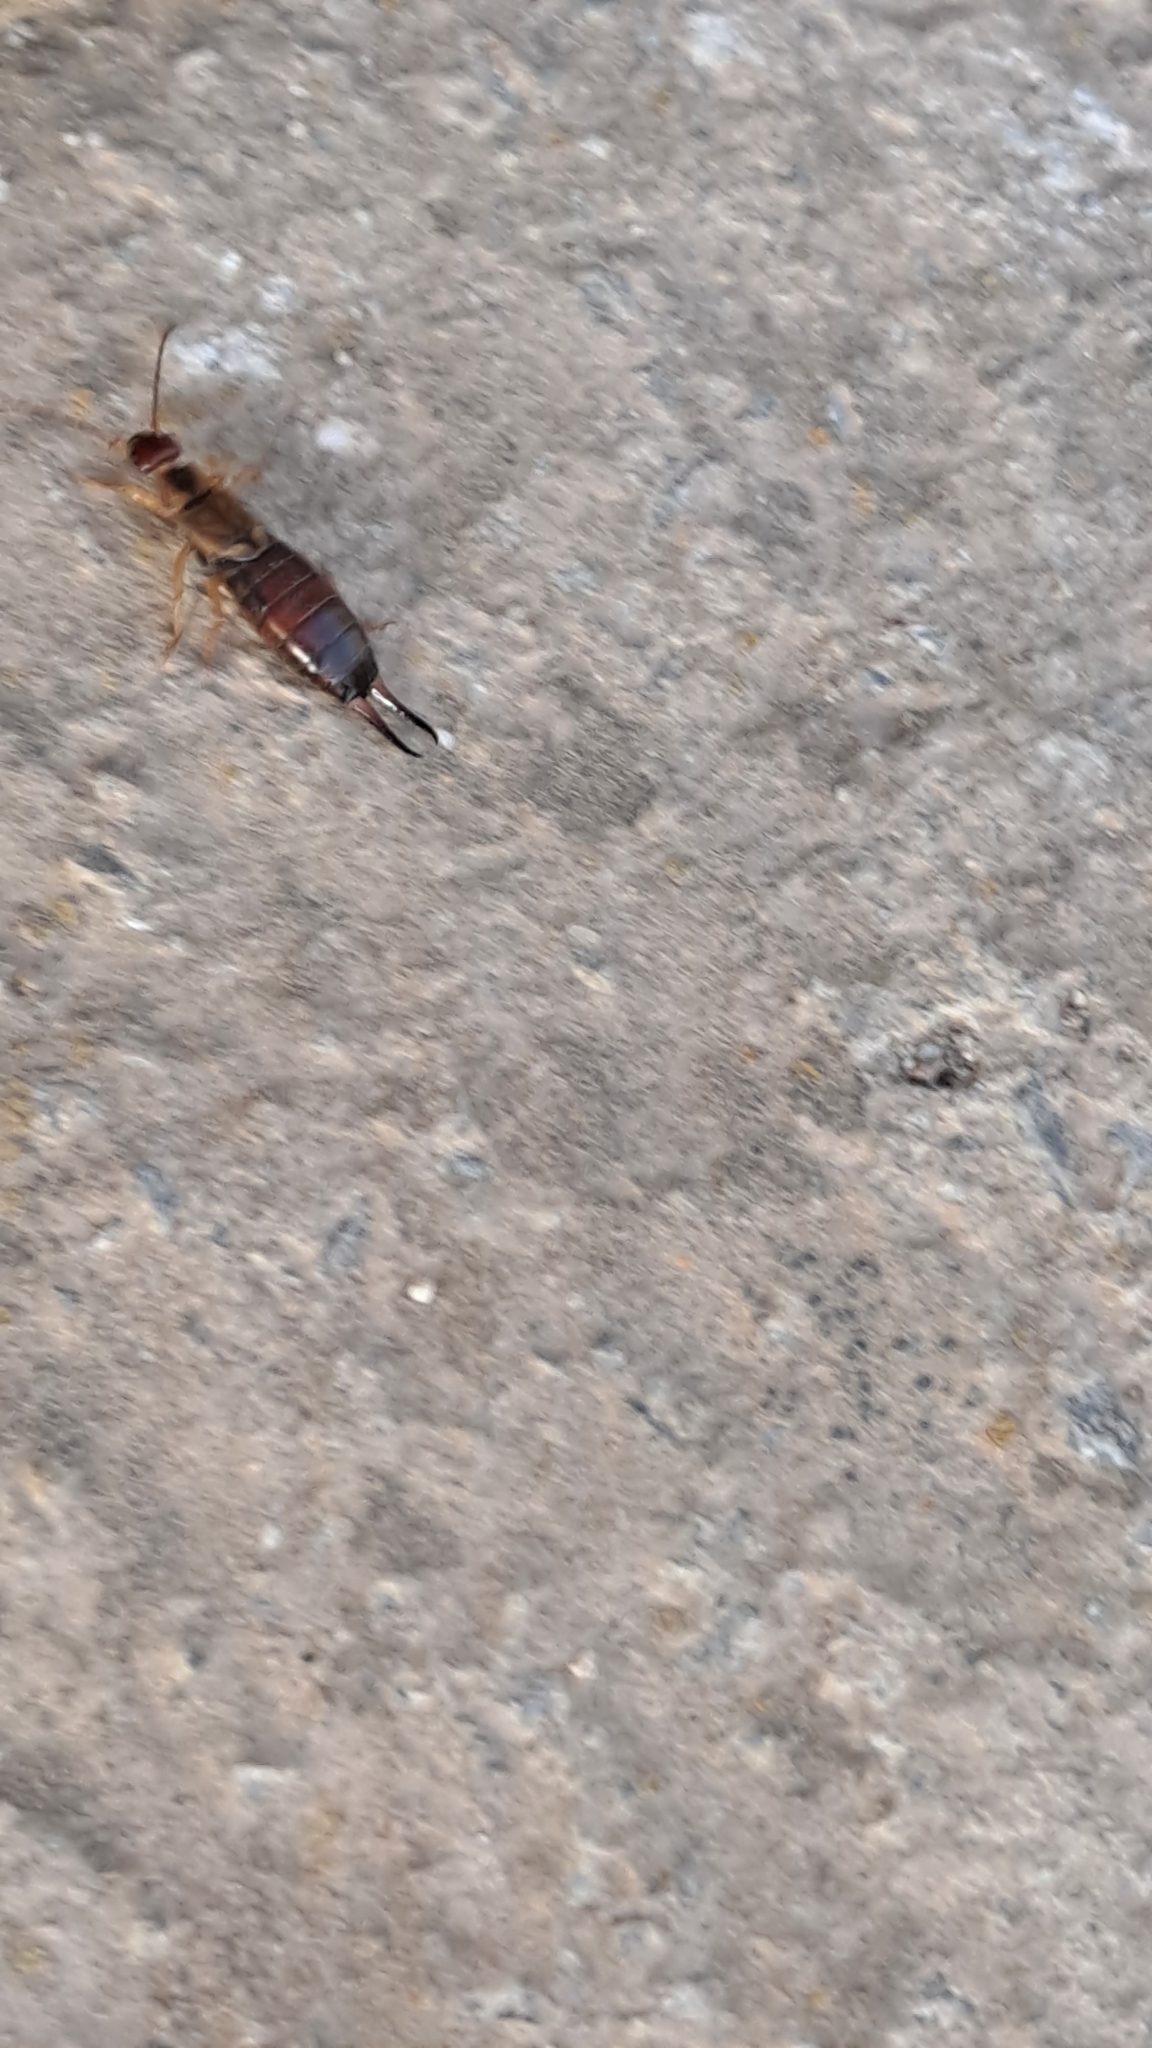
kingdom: Animalia
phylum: Arthropoda
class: Insecta
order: Dermaptera
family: Forficulidae
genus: Forficula
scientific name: Forficula
